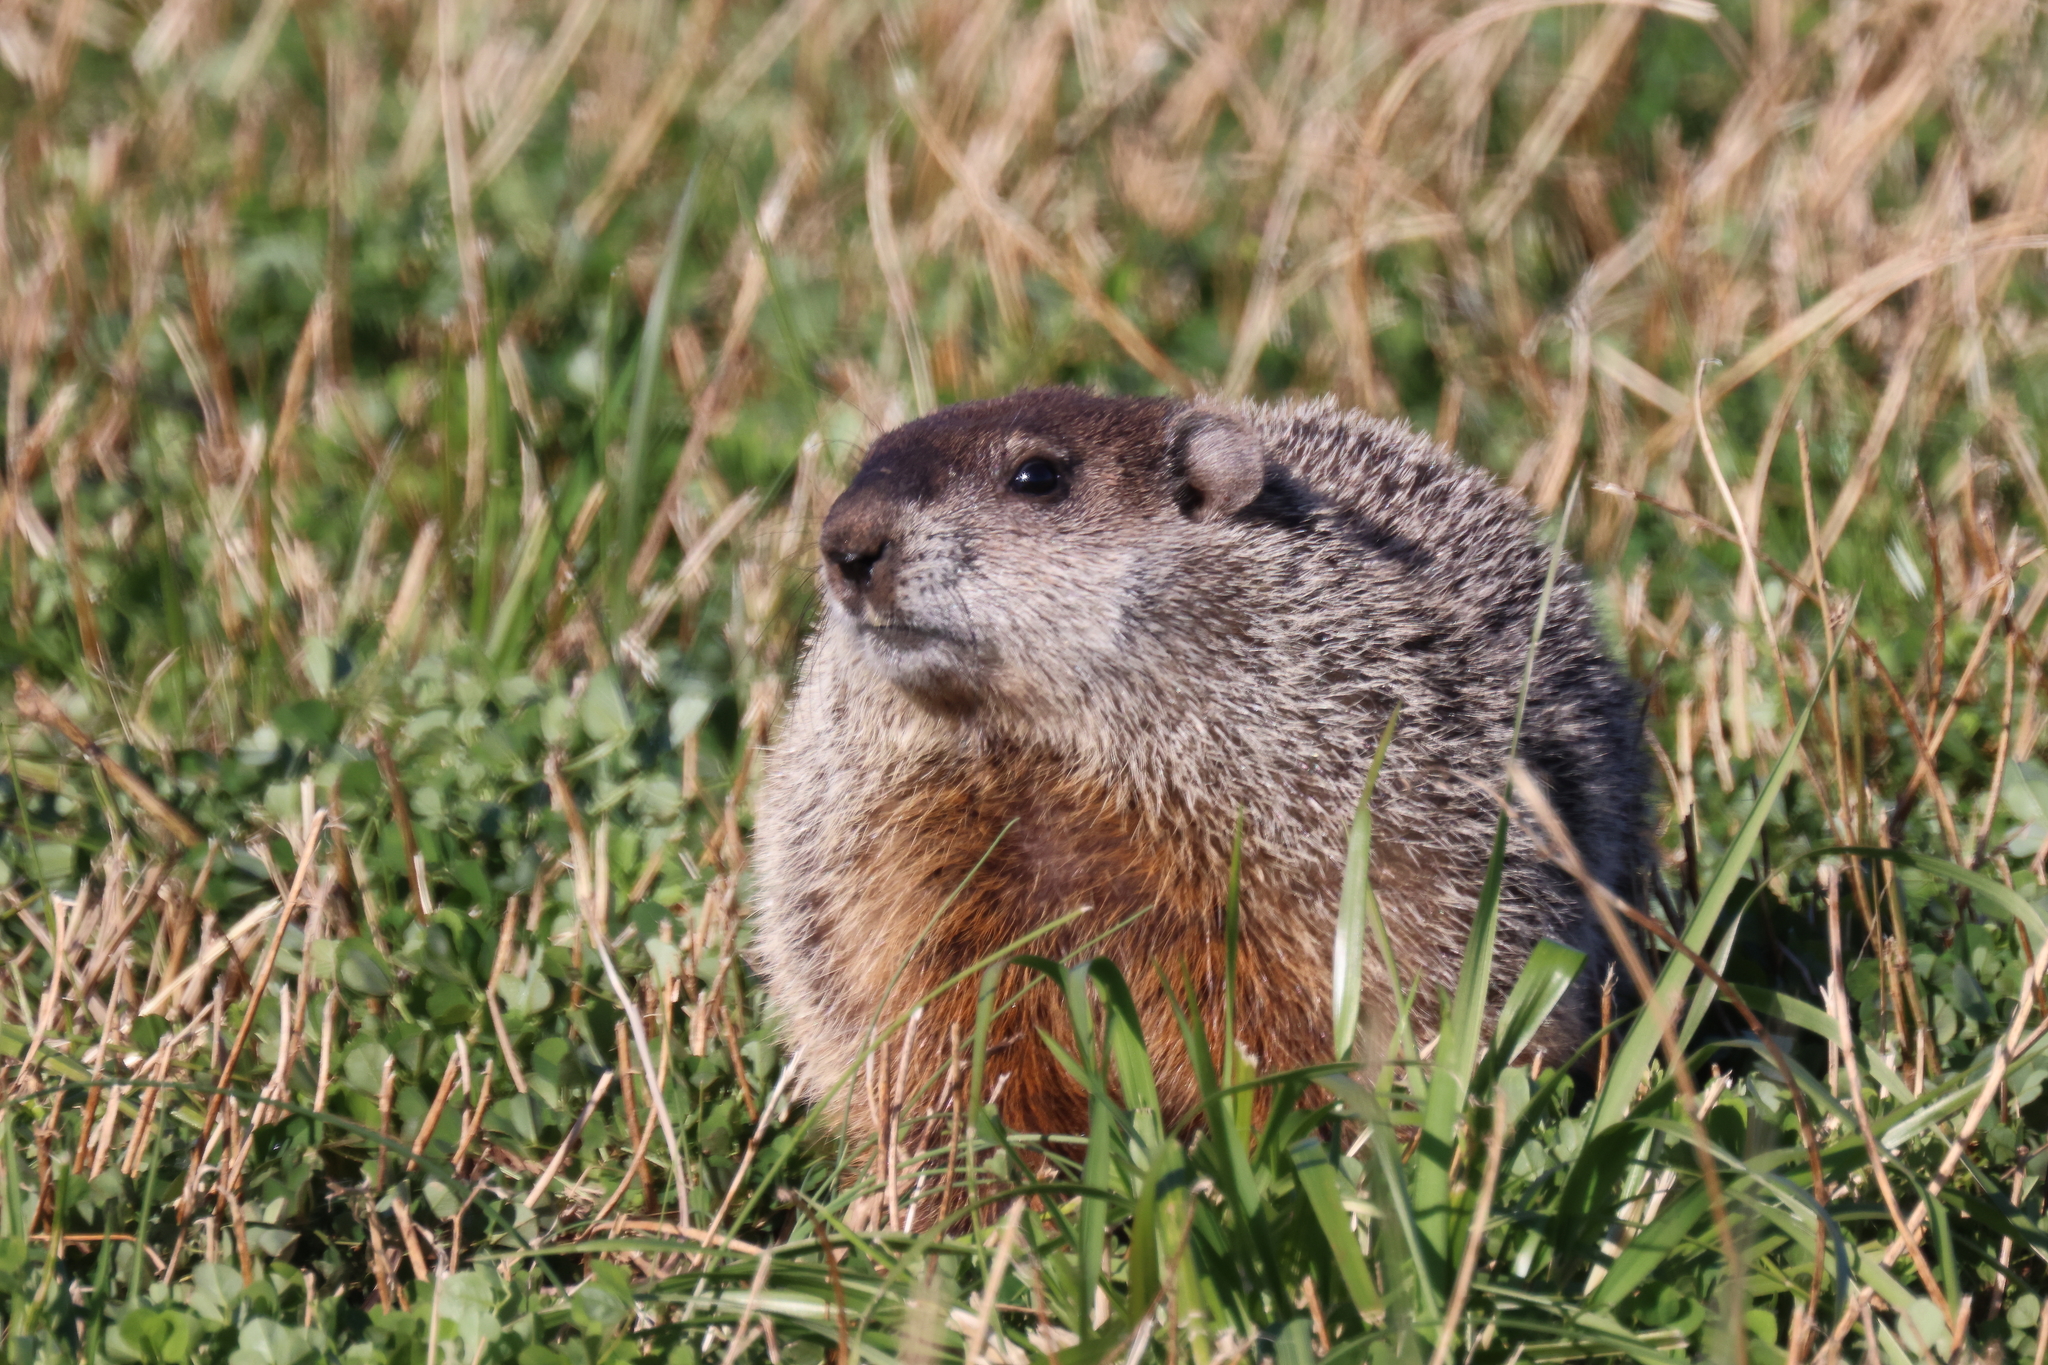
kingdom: Animalia
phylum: Chordata
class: Mammalia
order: Rodentia
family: Sciuridae
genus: Marmota
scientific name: Marmota monax
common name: Groundhog
